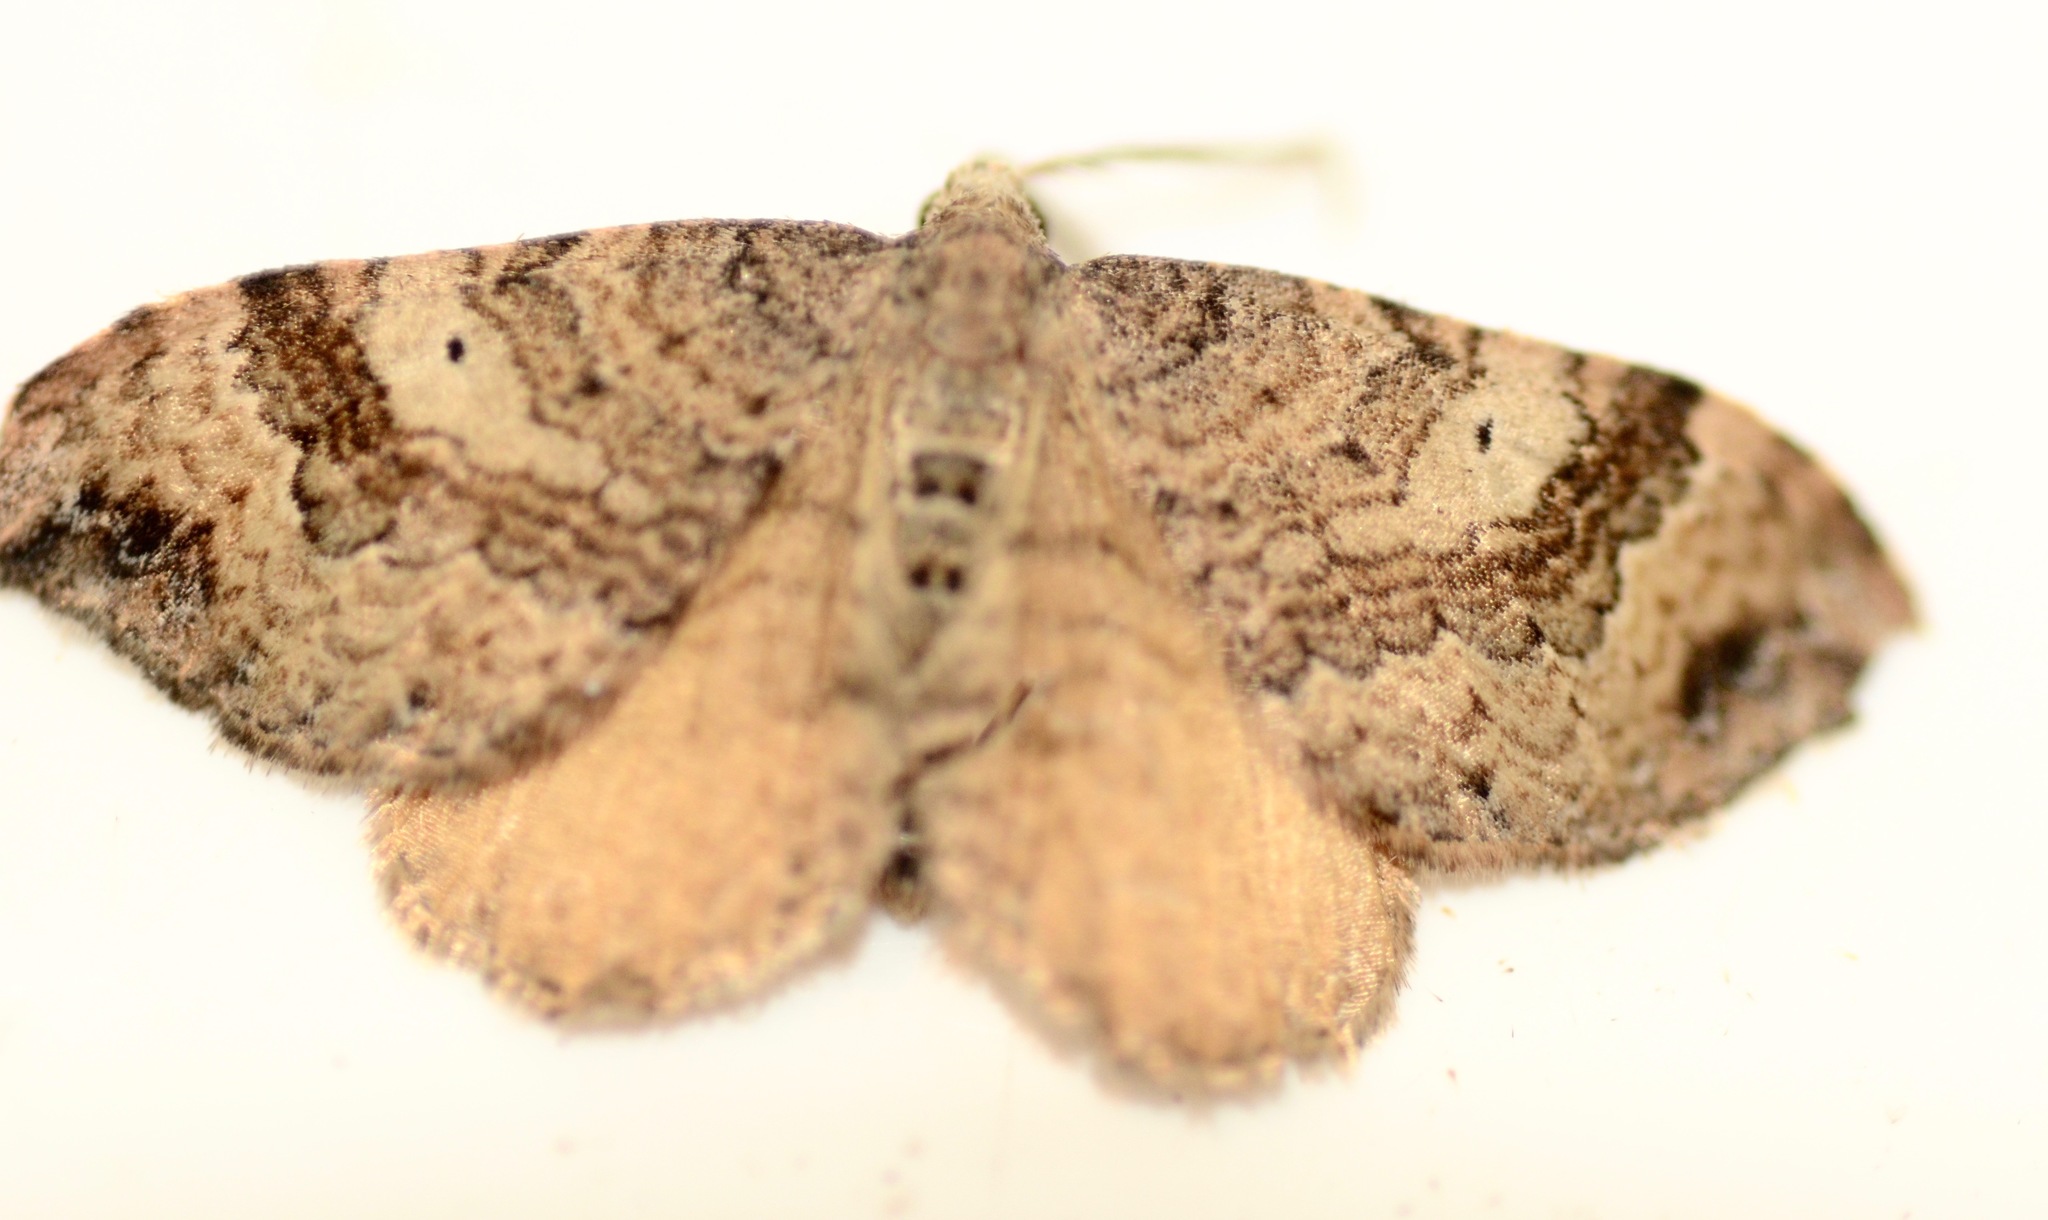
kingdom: Animalia
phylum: Arthropoda
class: Insecta
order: Lepidoptera
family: Geometridae
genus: Homodotis
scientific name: Homodotis megaspilata
